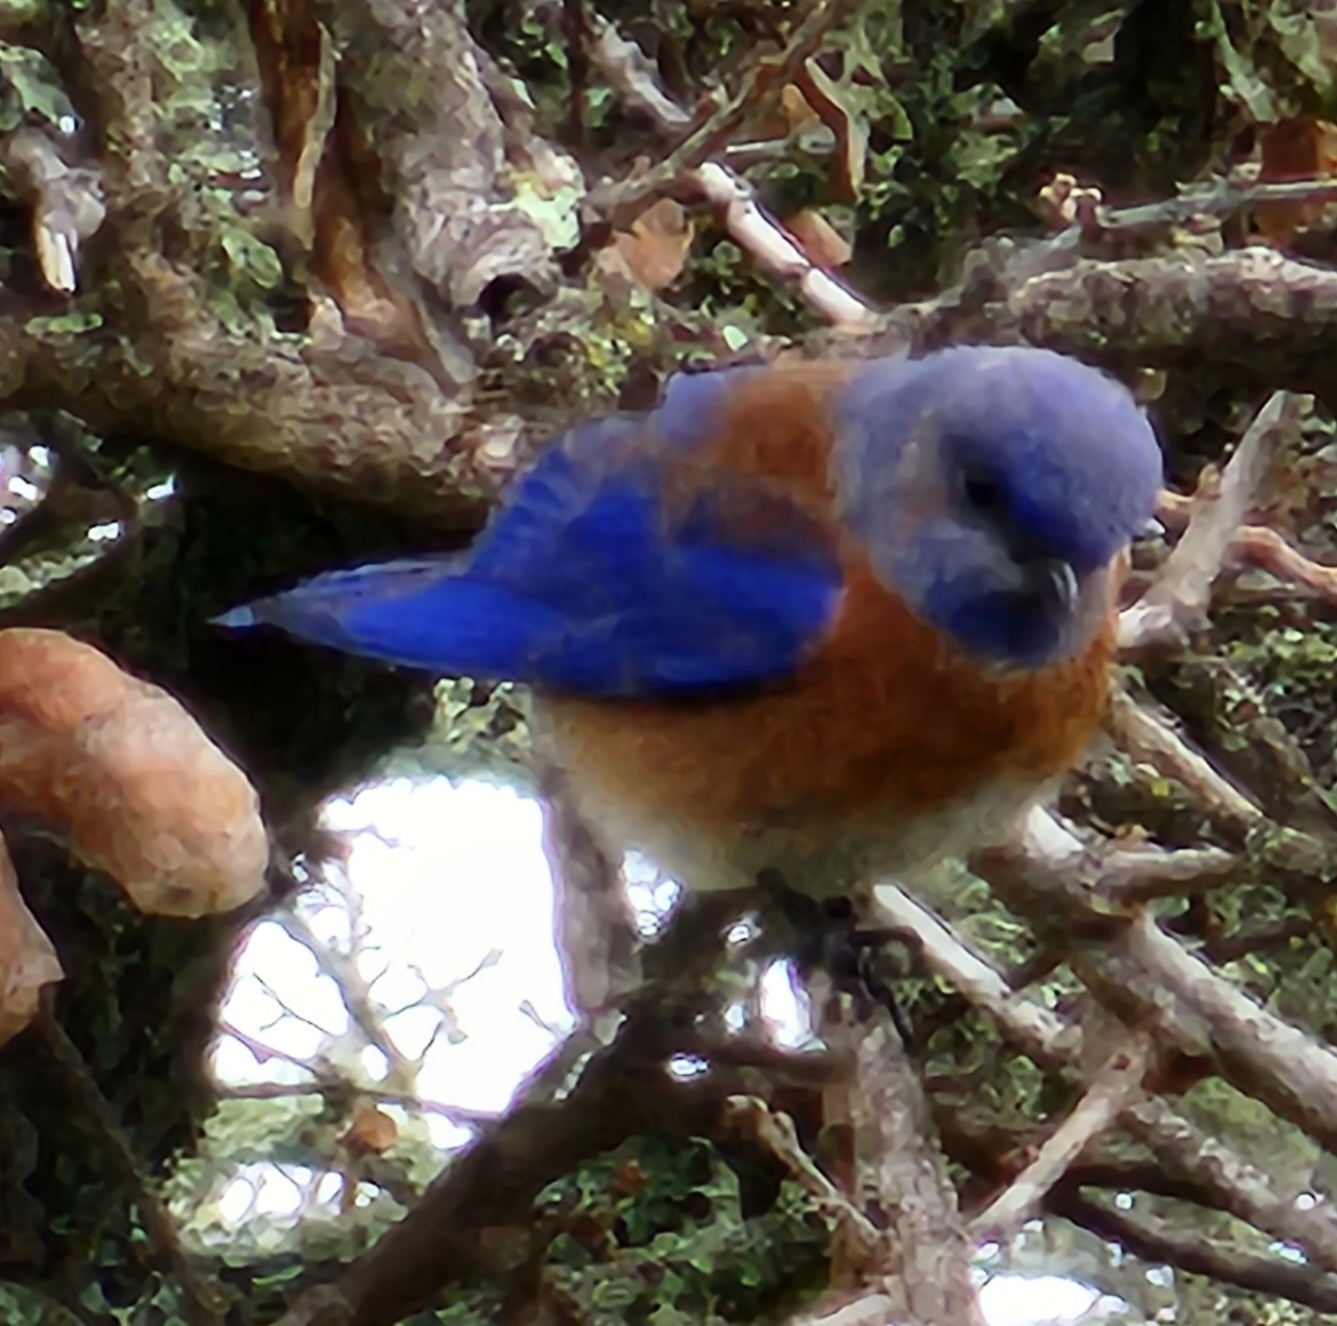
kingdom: Animalia
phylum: Chordata
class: Aves
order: Passeriformes
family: Turdidae
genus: Sialia
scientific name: Sialia mexicana
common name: Western bluebird
